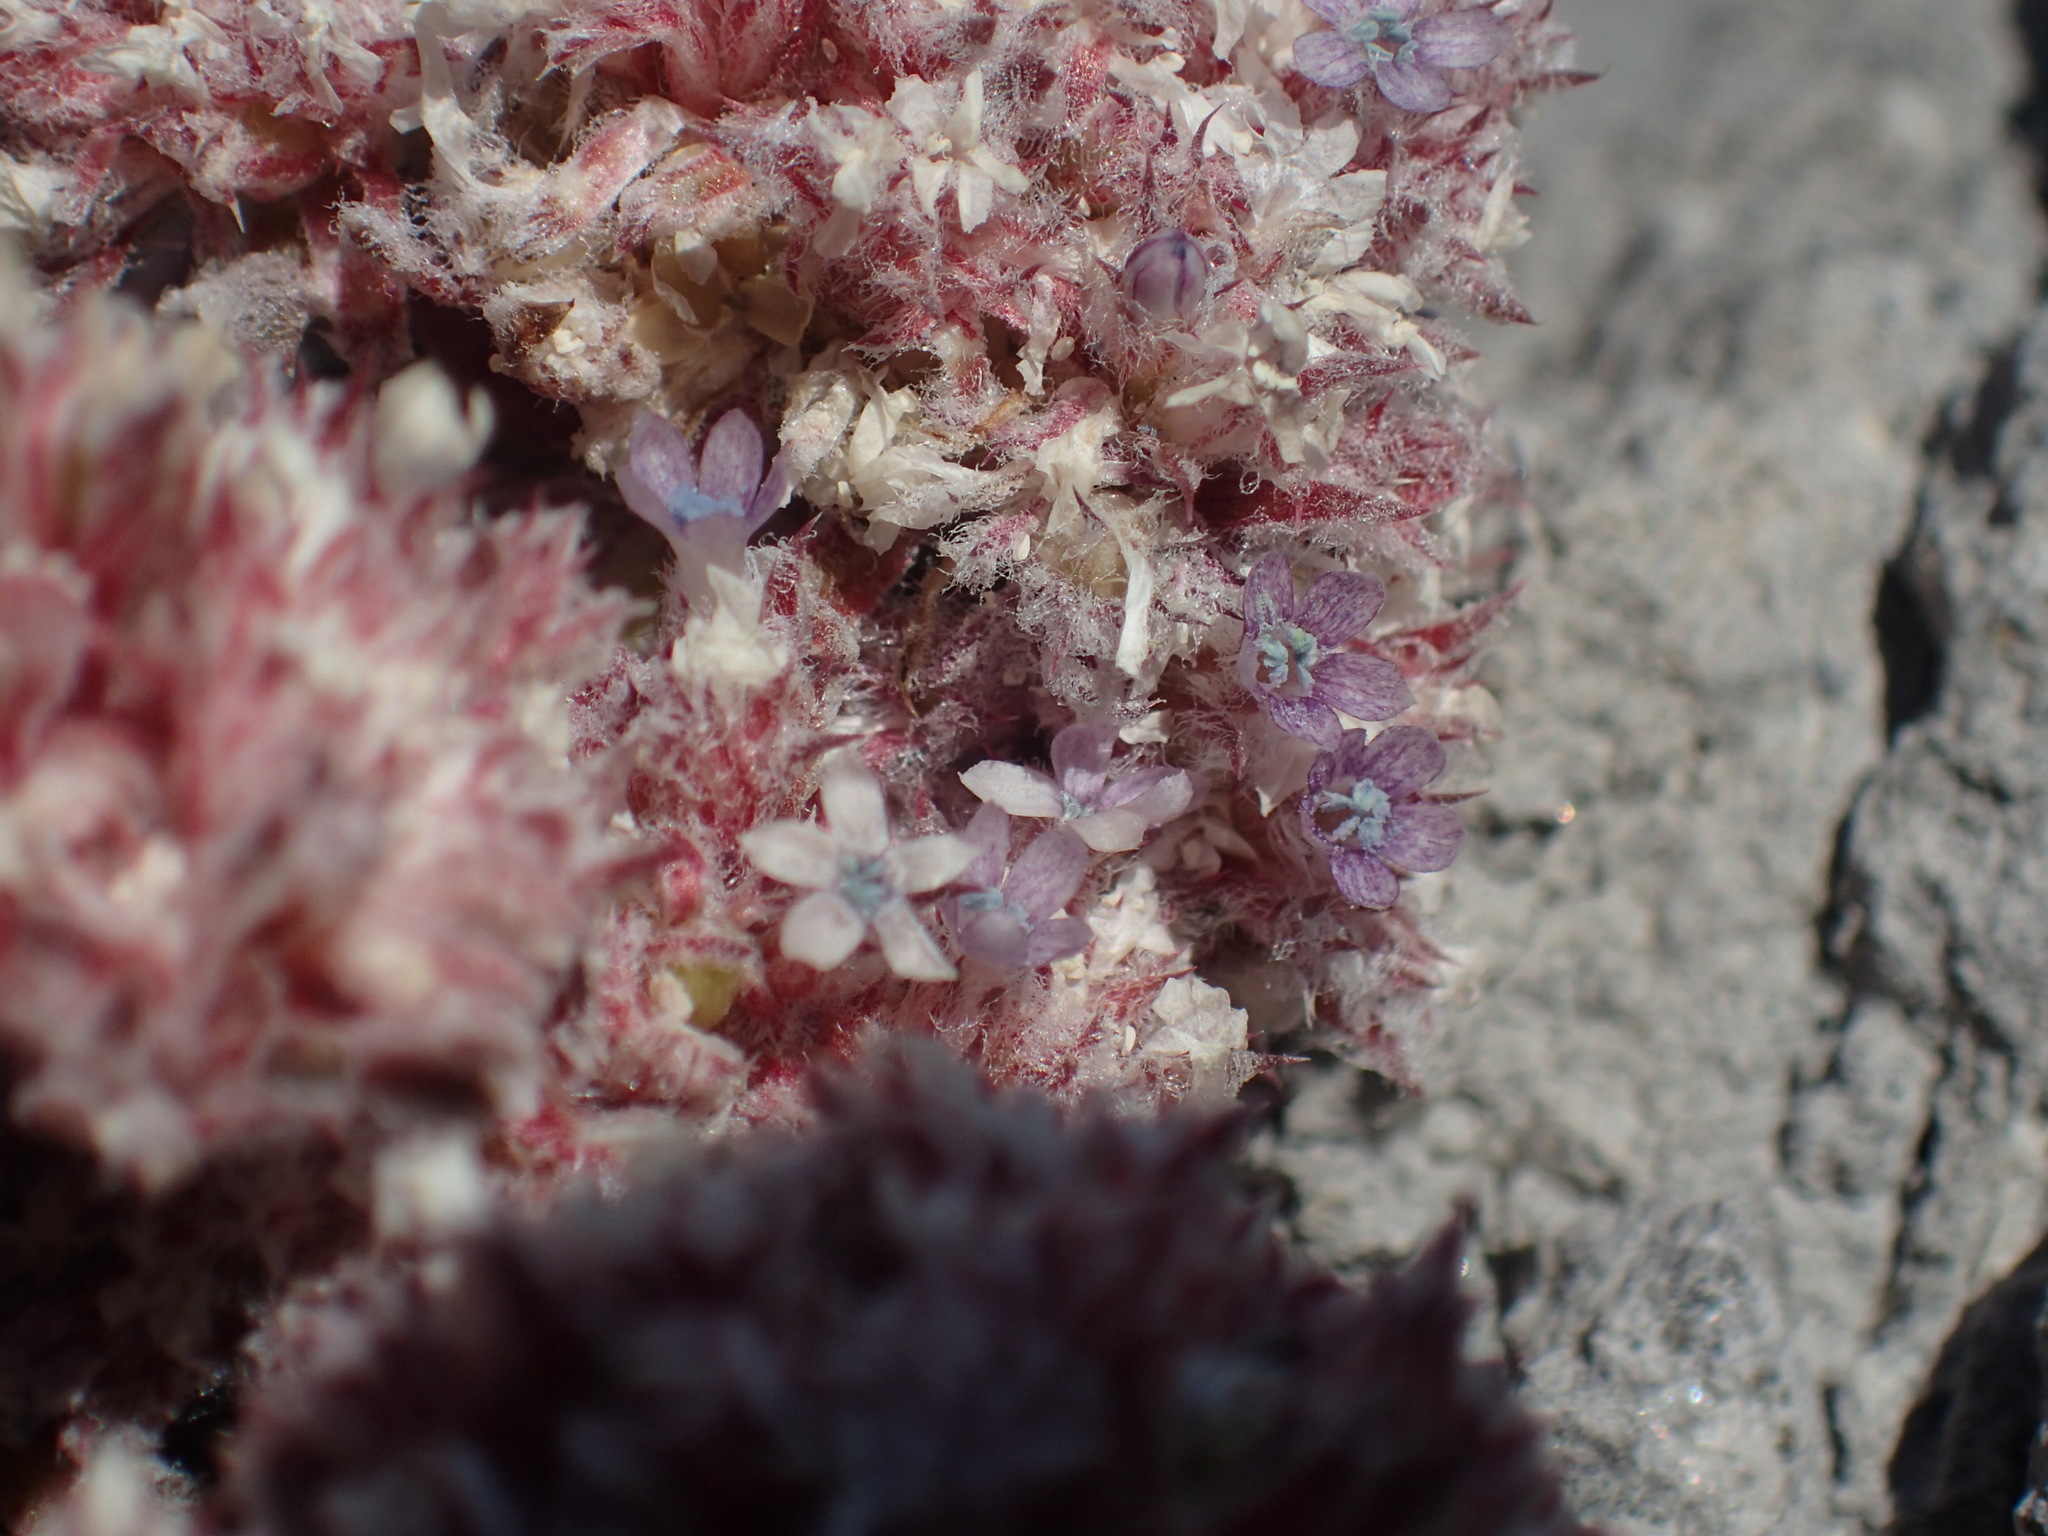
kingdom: Plantae
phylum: Tracheophyta
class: Magnoliopsida
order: Ericales
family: Polemoniaceae
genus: Ipomopsis
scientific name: Ipomopsis congesta
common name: Ball-head gilia
